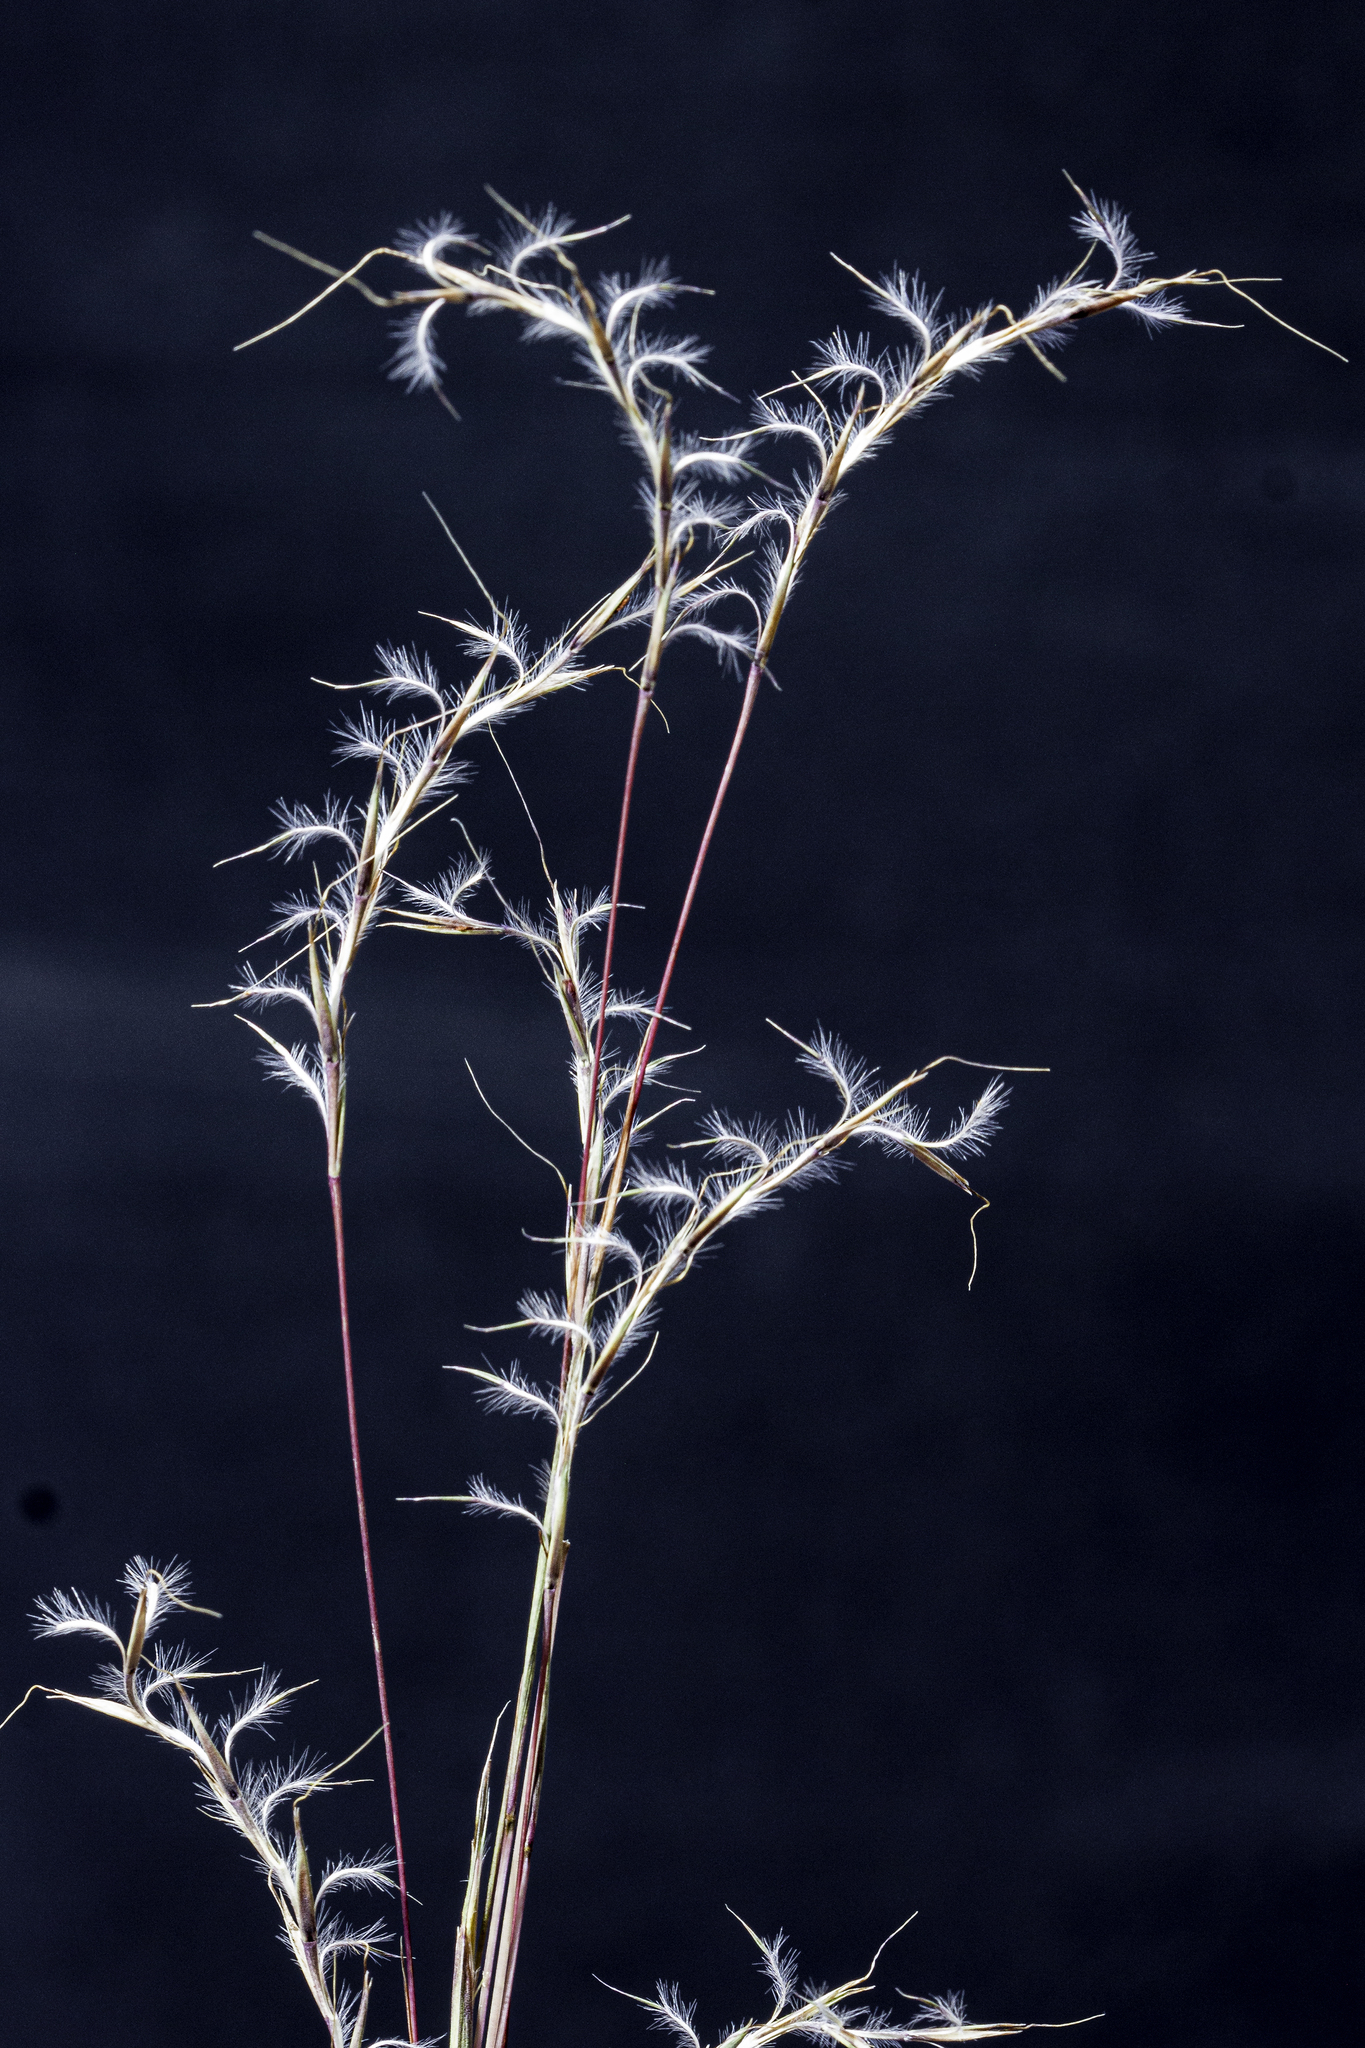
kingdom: Plantae
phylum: Tracheophyta
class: Liliopsida
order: Poales
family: Poaceae
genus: Schizachyrium
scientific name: Schizachyrium scoparium
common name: Little bluestem
